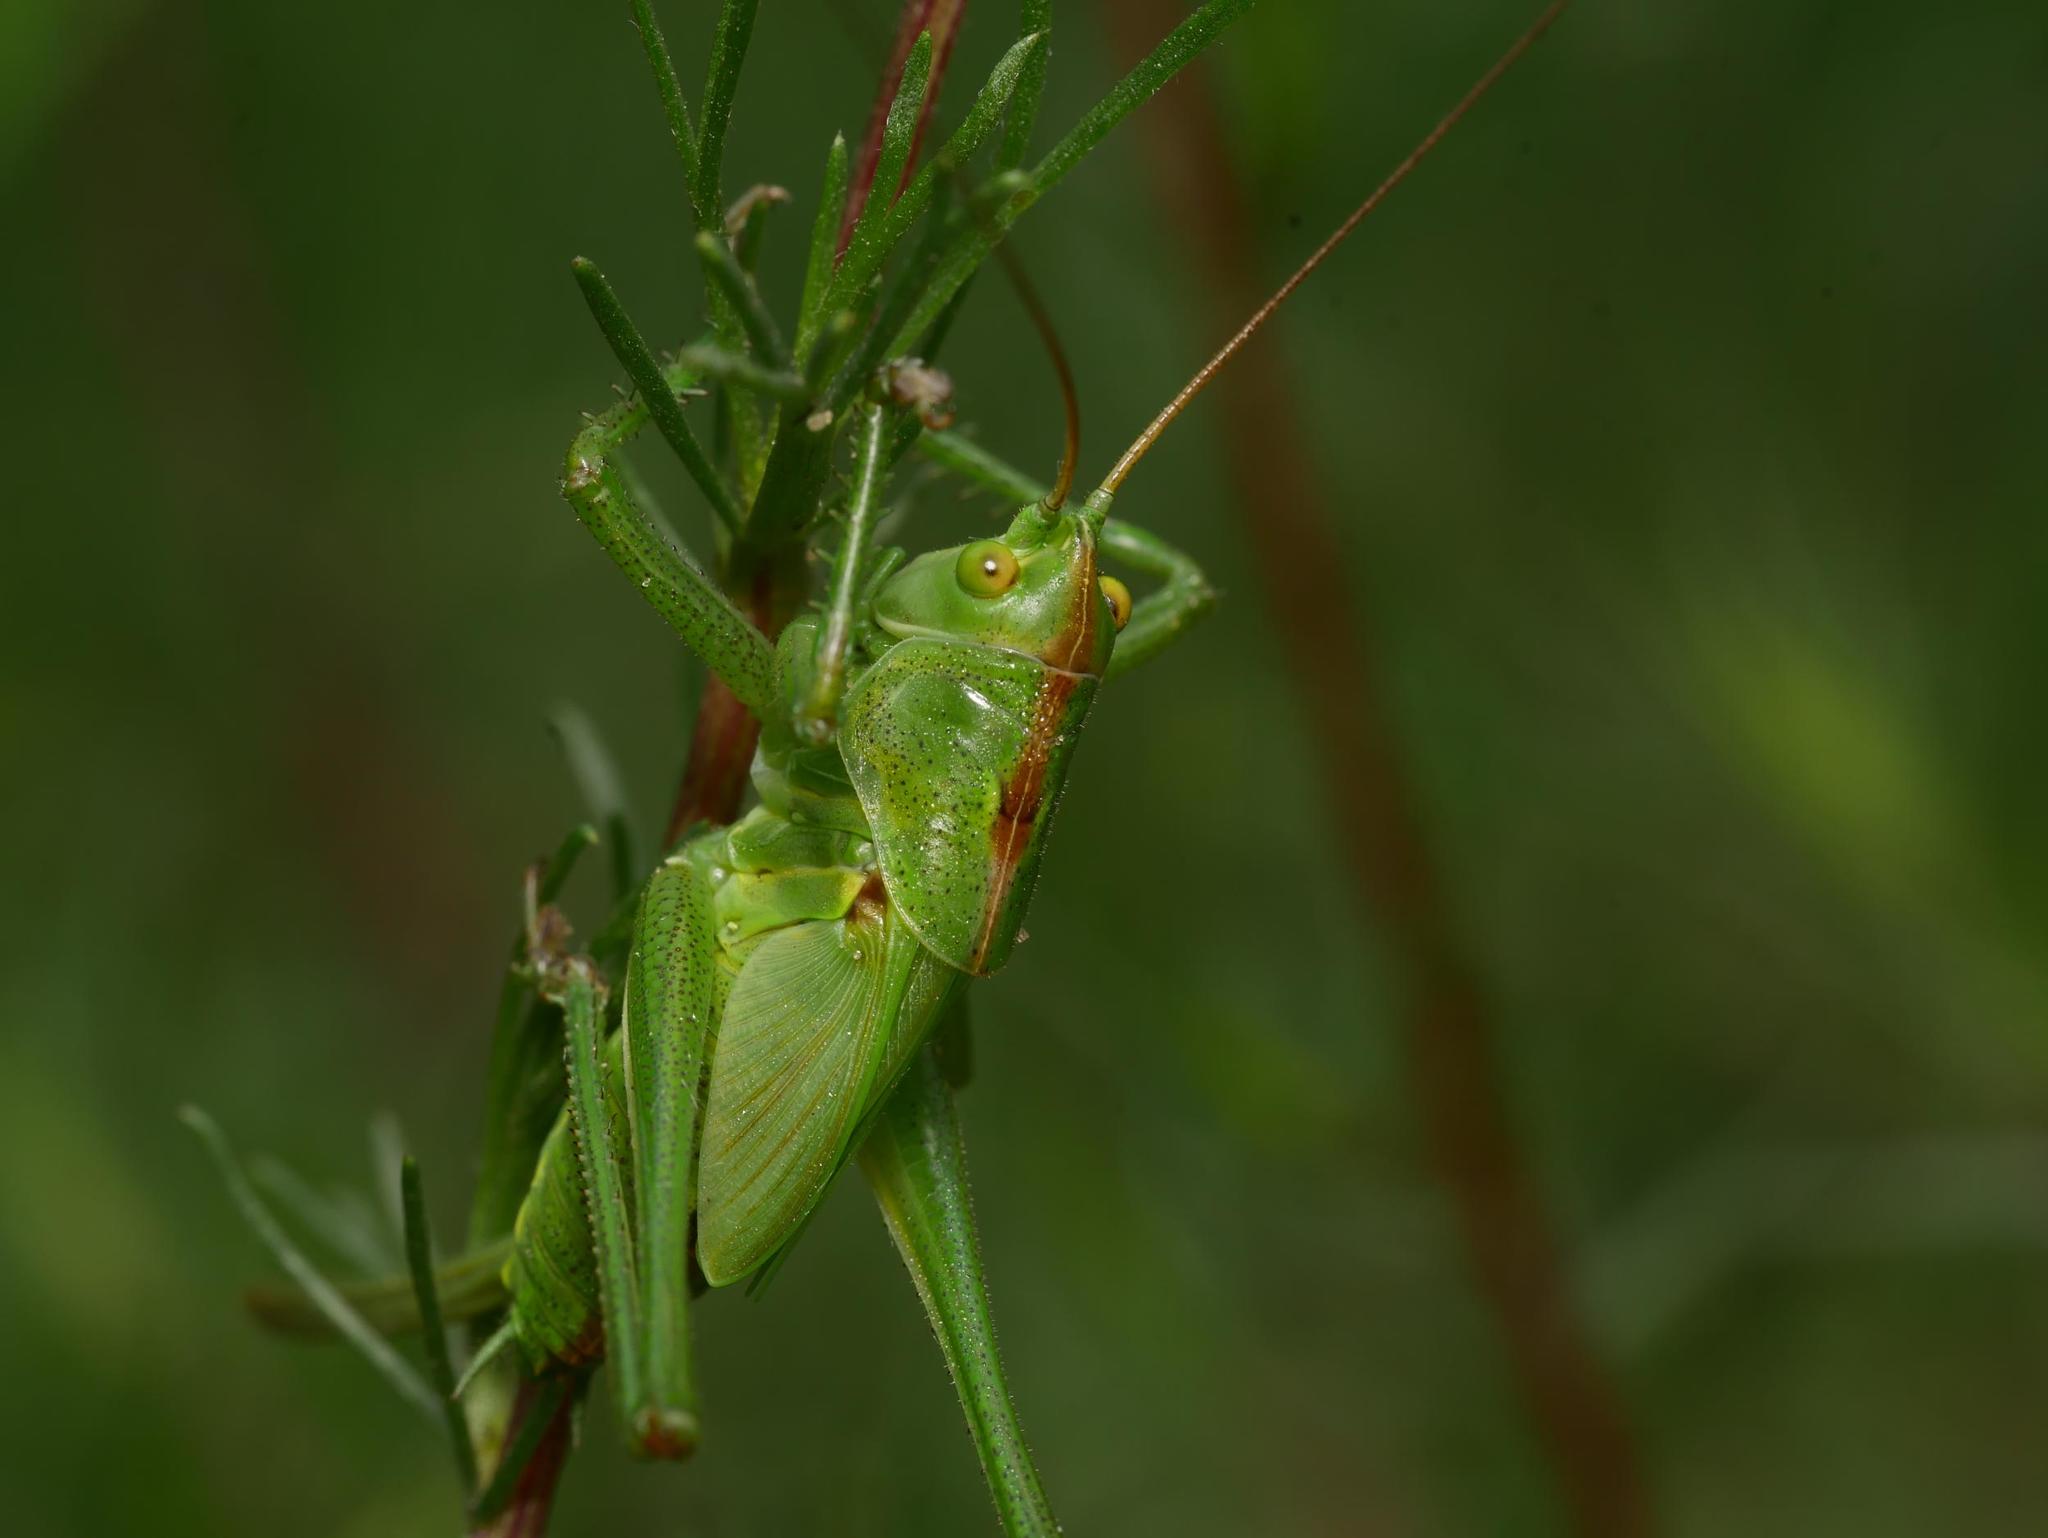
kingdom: Animalia
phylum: Arthropoda
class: Insecta
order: Orthoptera
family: Tettigoniidae
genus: Tettigonia
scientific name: Tettigonia viridissima
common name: Great green bush-cricket
